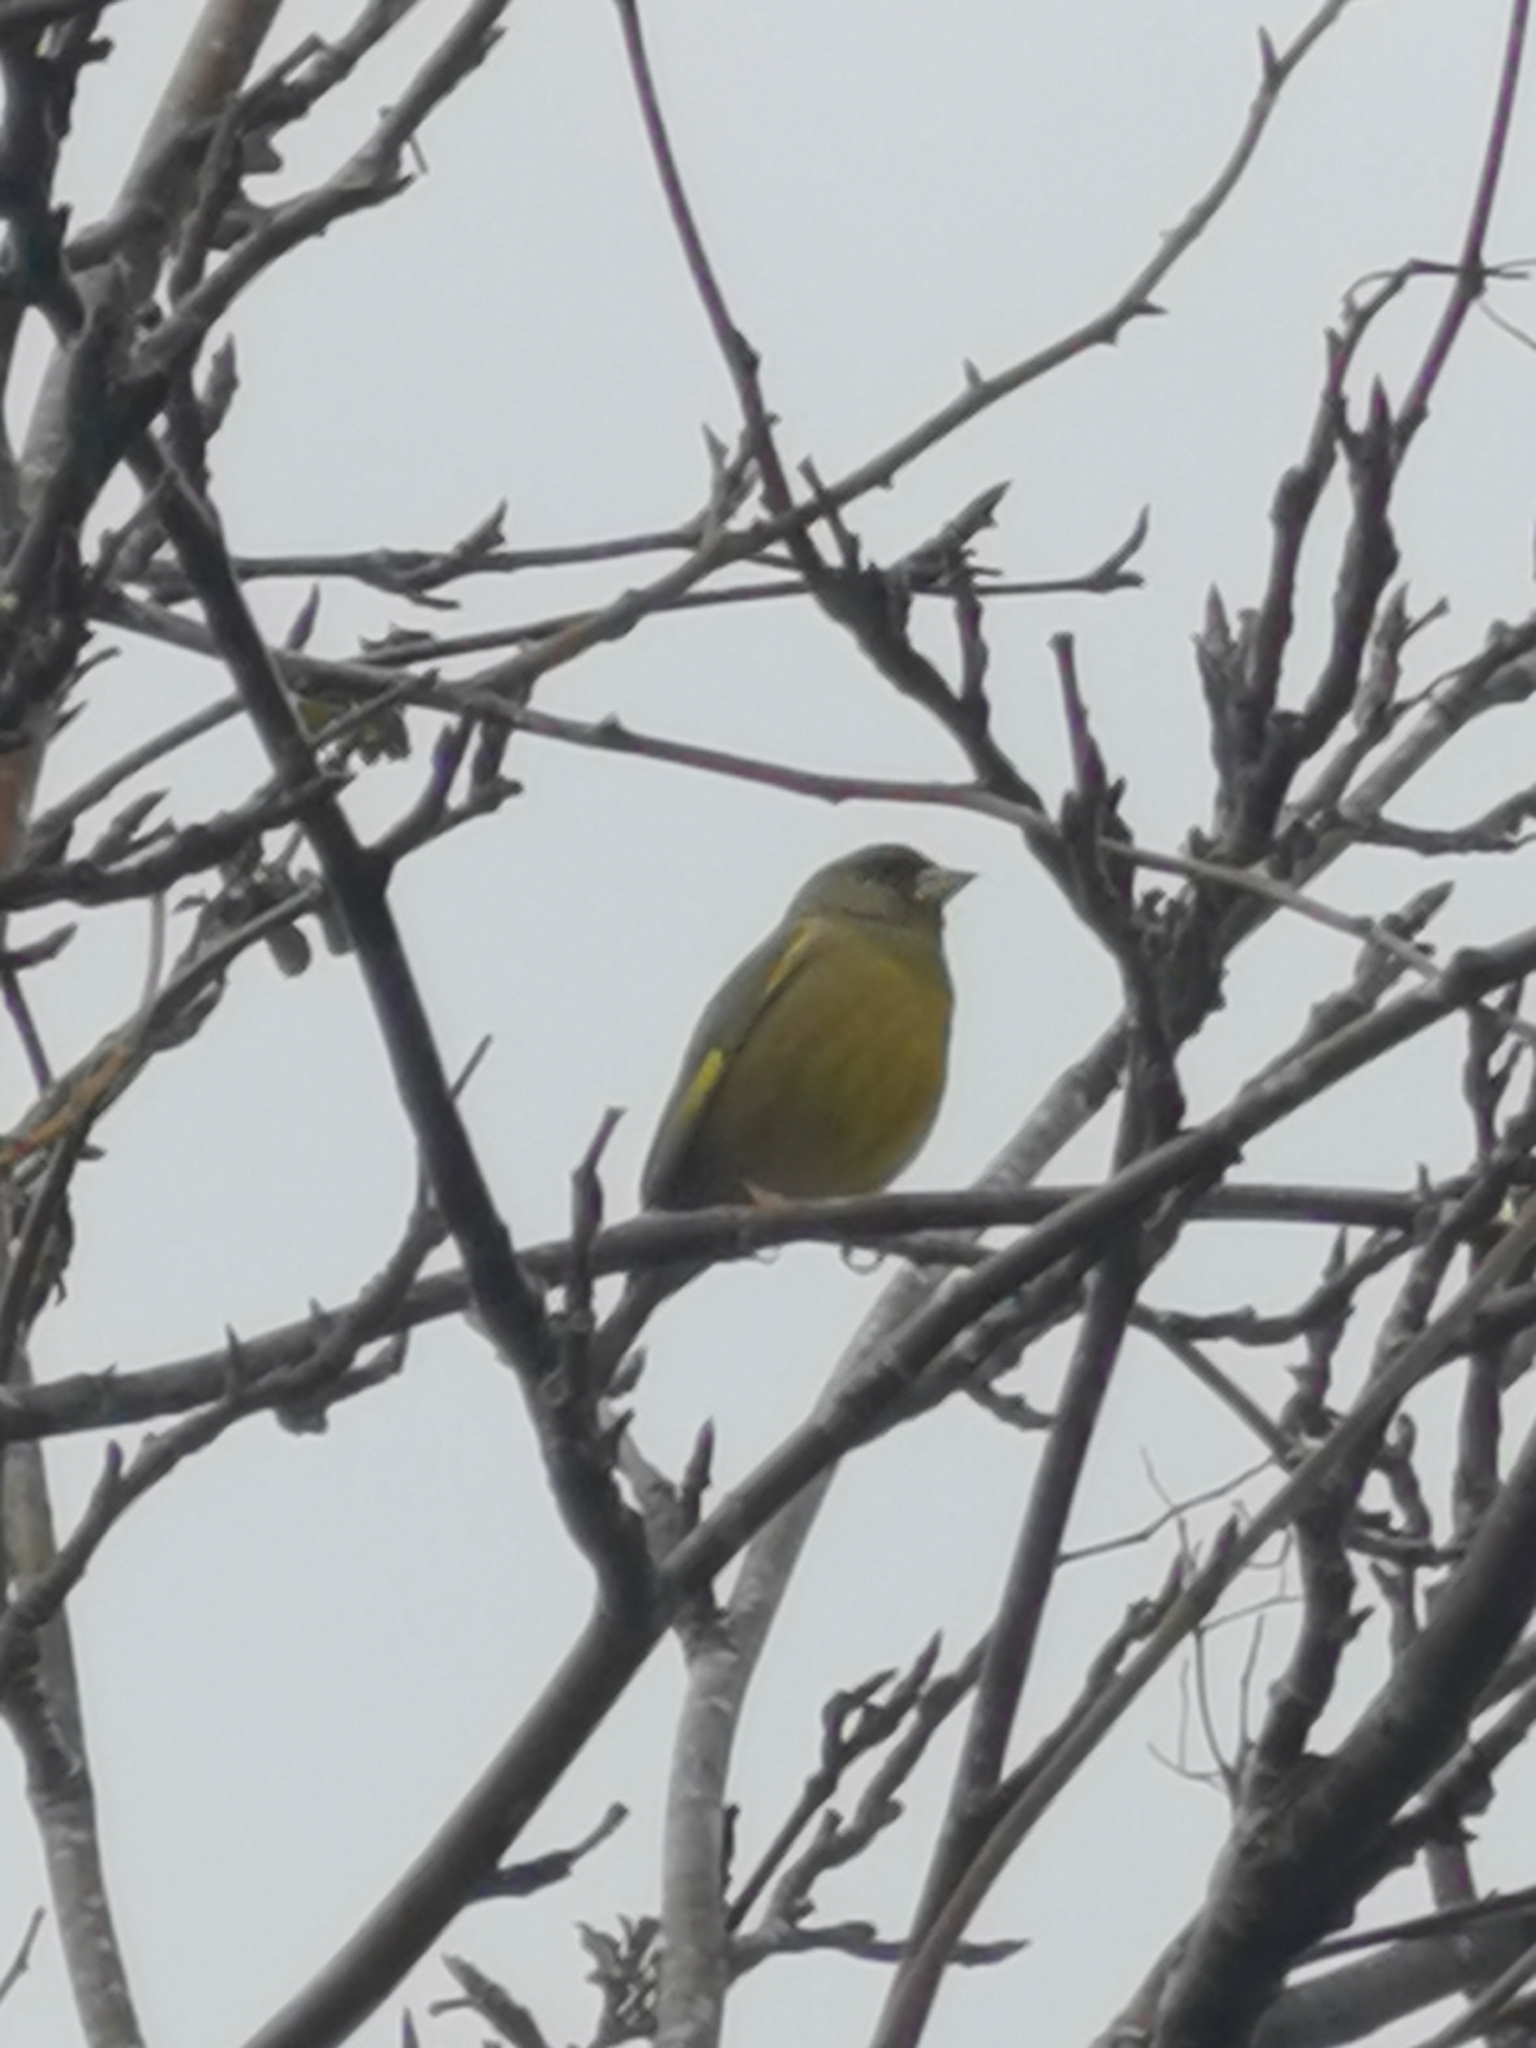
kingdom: Plantae
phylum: Tracheophyta
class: Liliopsida
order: Poales
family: Poaceae
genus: Chloris
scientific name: Chloris chloris
